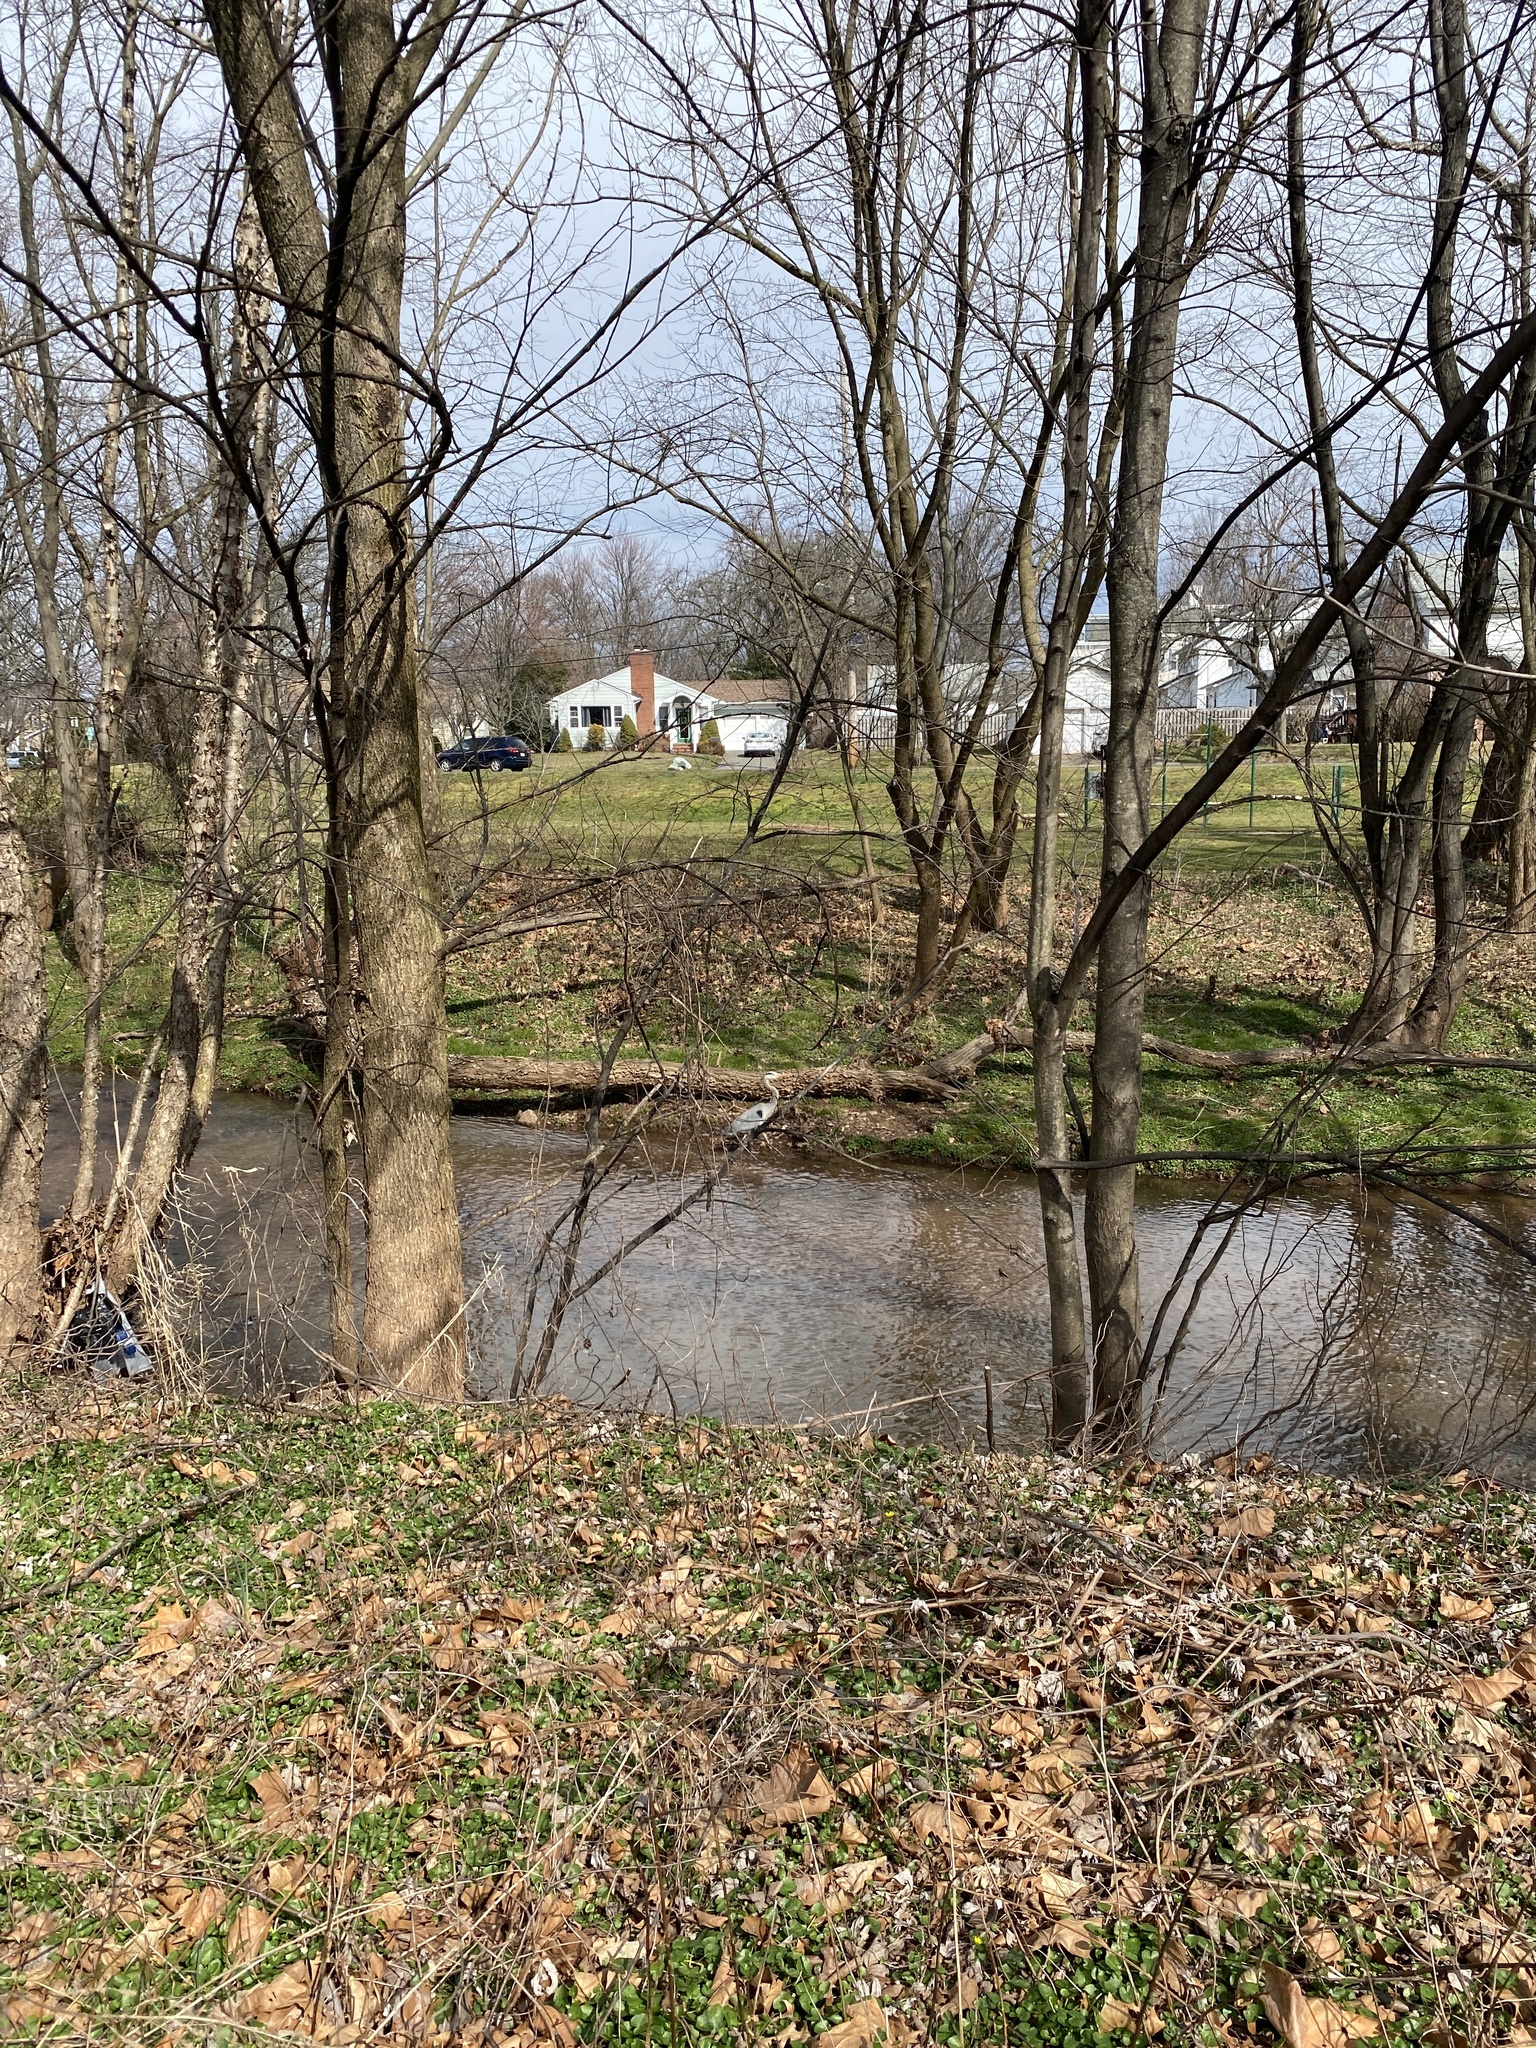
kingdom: Animalia
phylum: Chordata
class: Aves
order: Pelecaniformes
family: Ardeidae
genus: Ardea
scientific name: Ardea herodias
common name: Great blue heron
